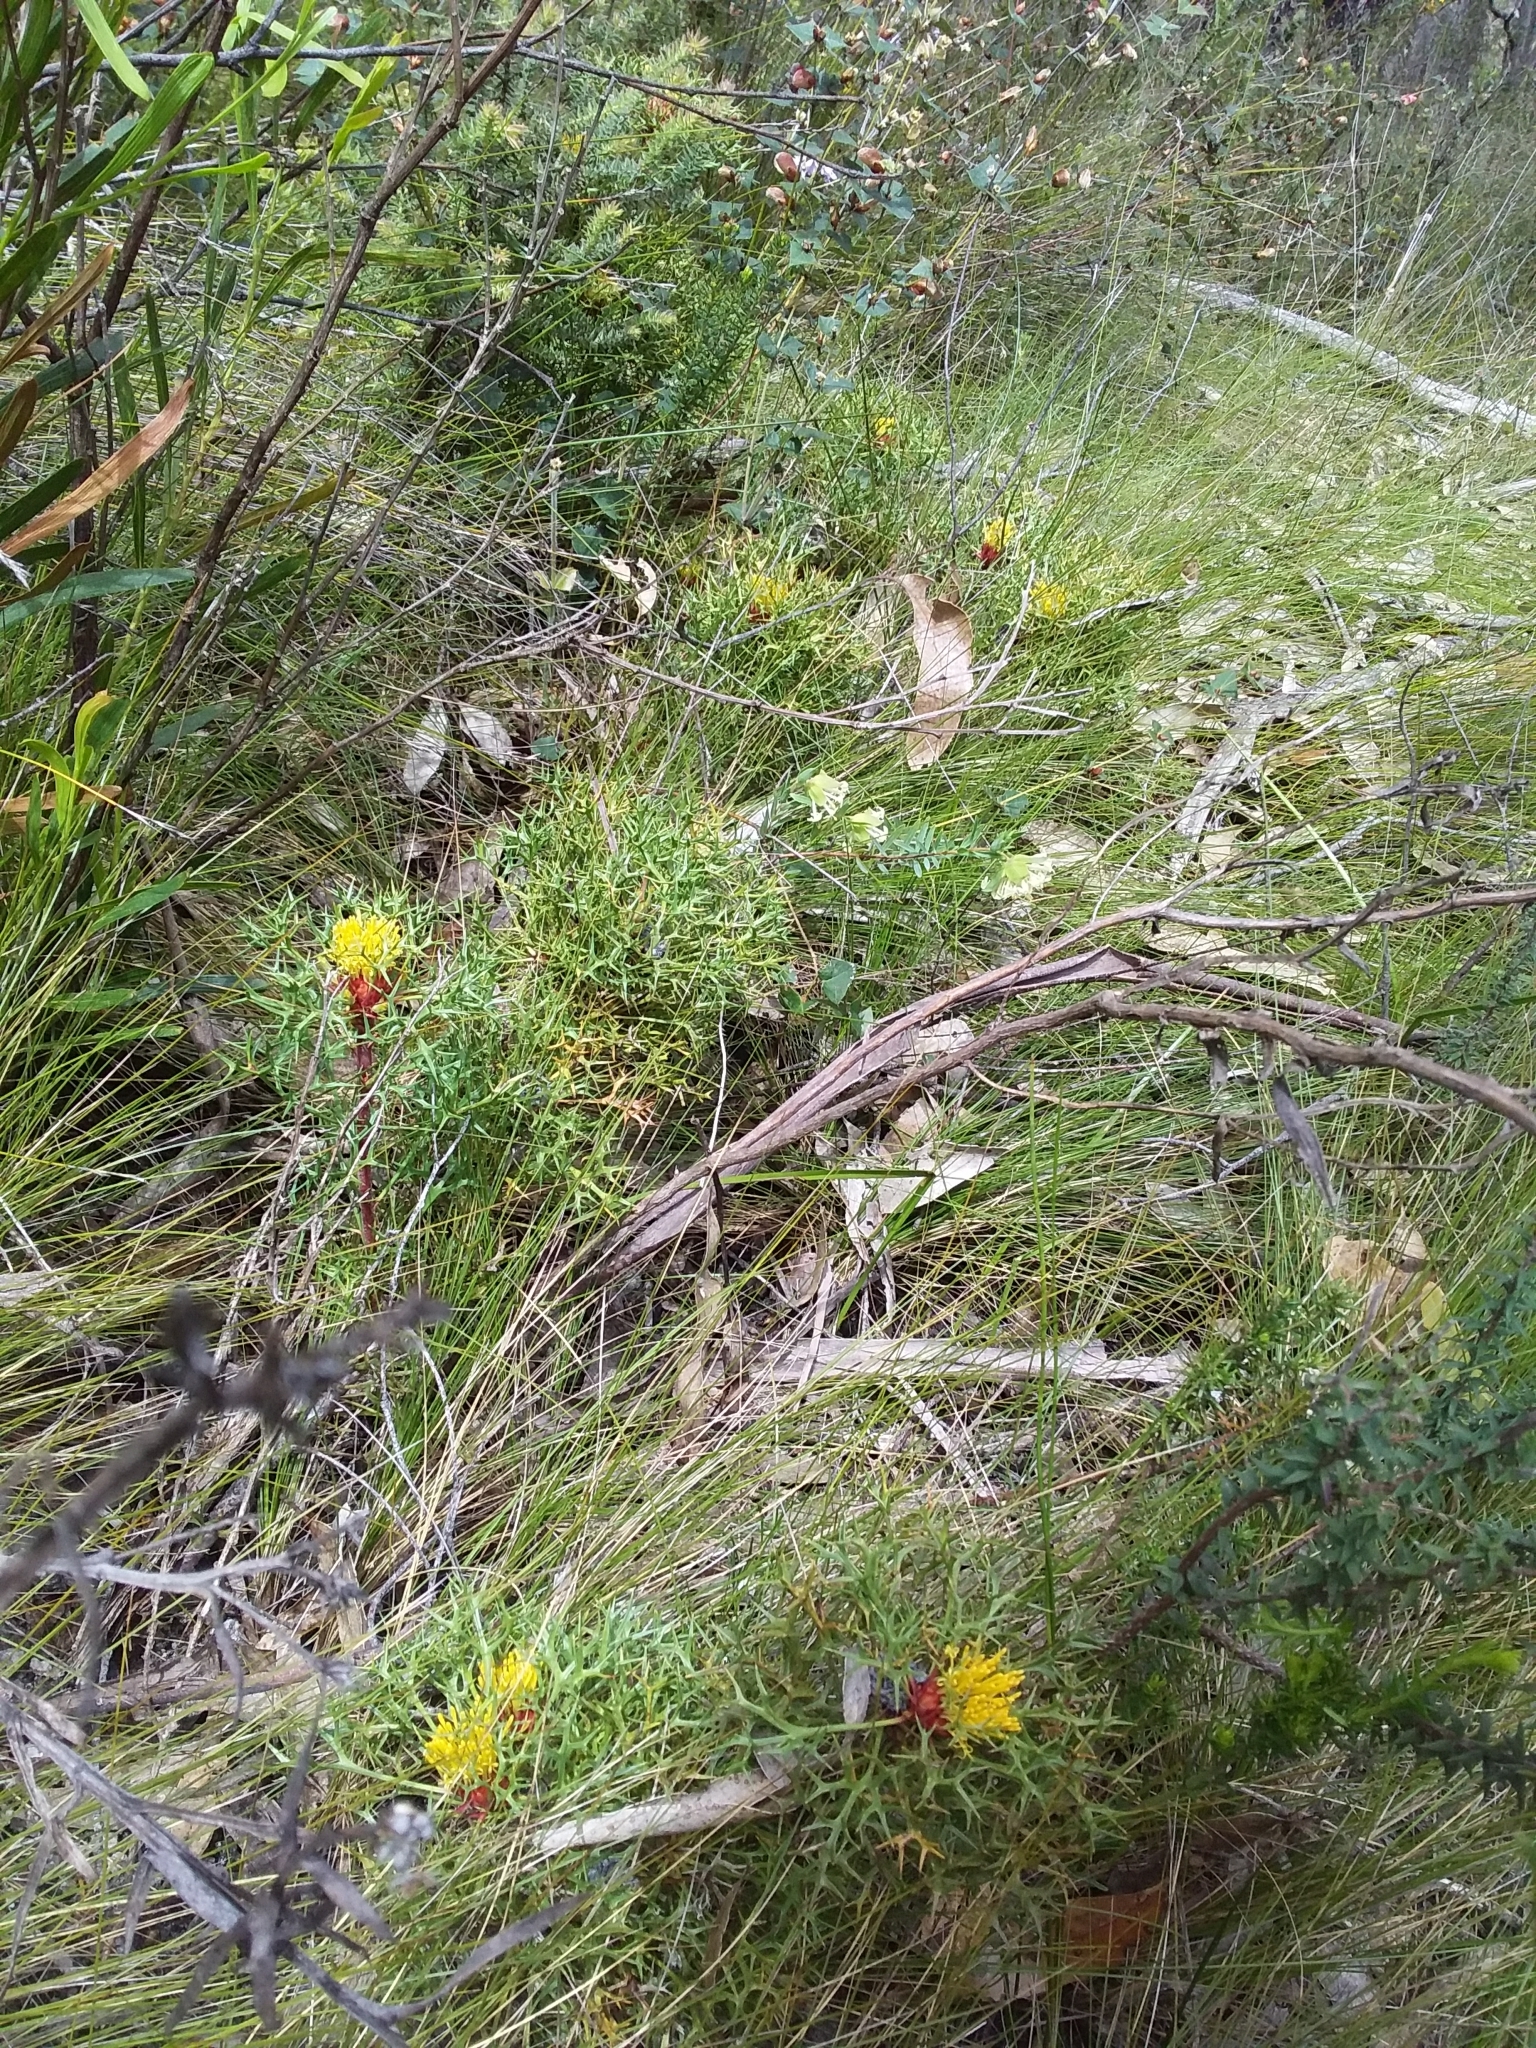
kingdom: Plantae
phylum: Tracheophyta
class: Magnoliopsida
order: Proteales
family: Proteaceae
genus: Isopogon
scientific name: Isopogon ceratophyllus
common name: Horny cone-bush
